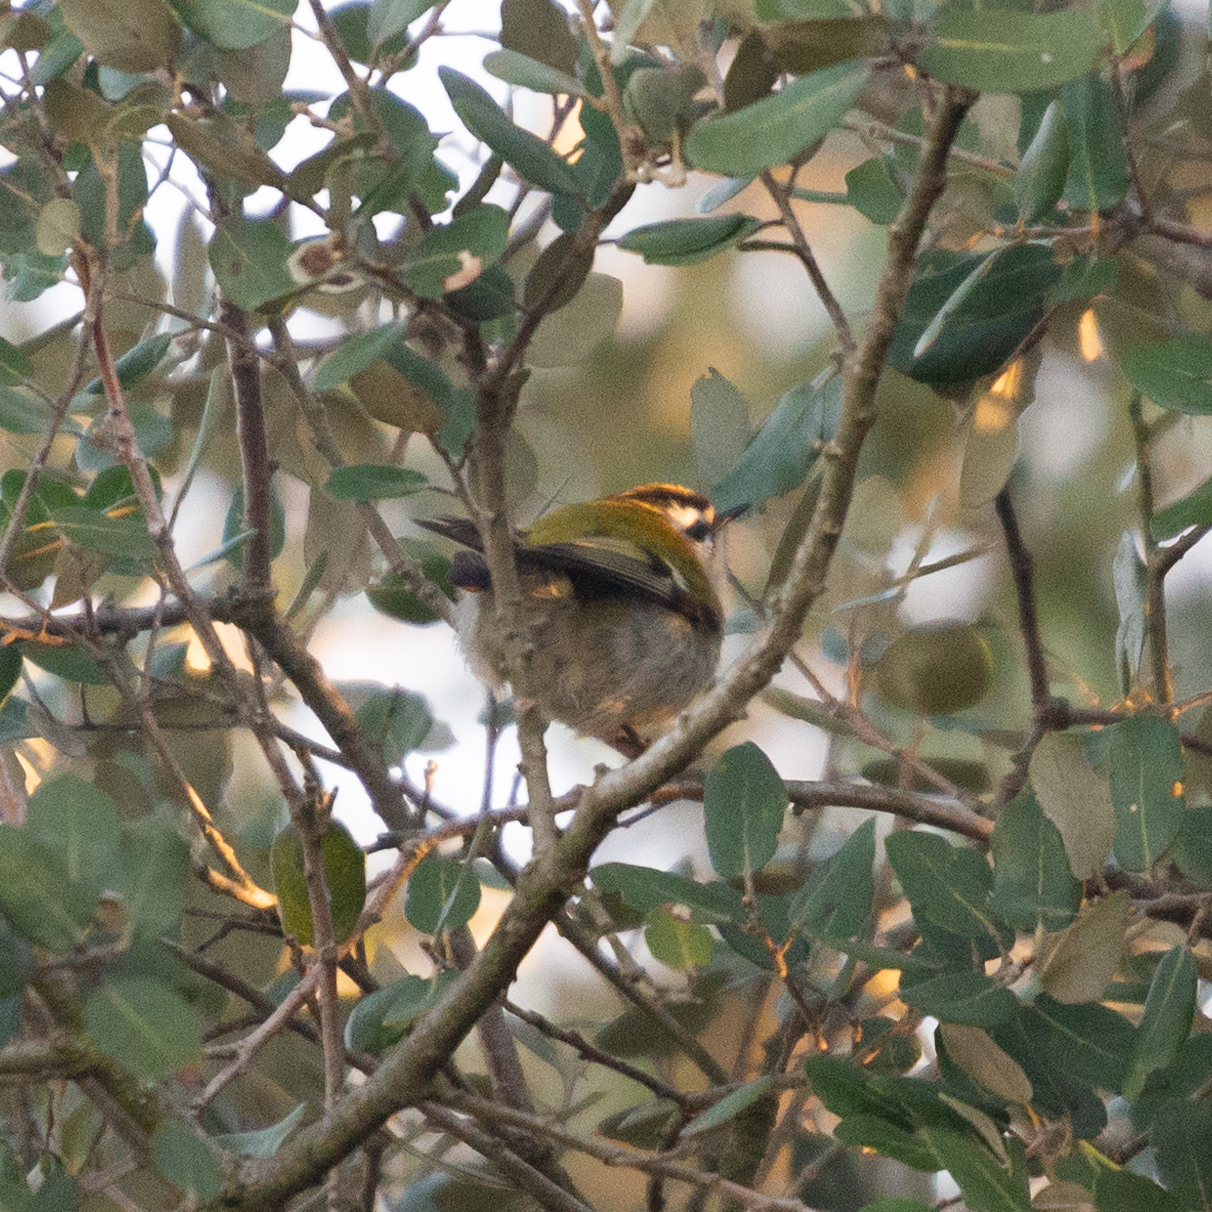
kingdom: Animalia
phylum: Chordata
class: Aves
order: Passeriformes
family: Regulidae
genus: Regulus
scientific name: Regulus ignicapilla
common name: Firecrest
